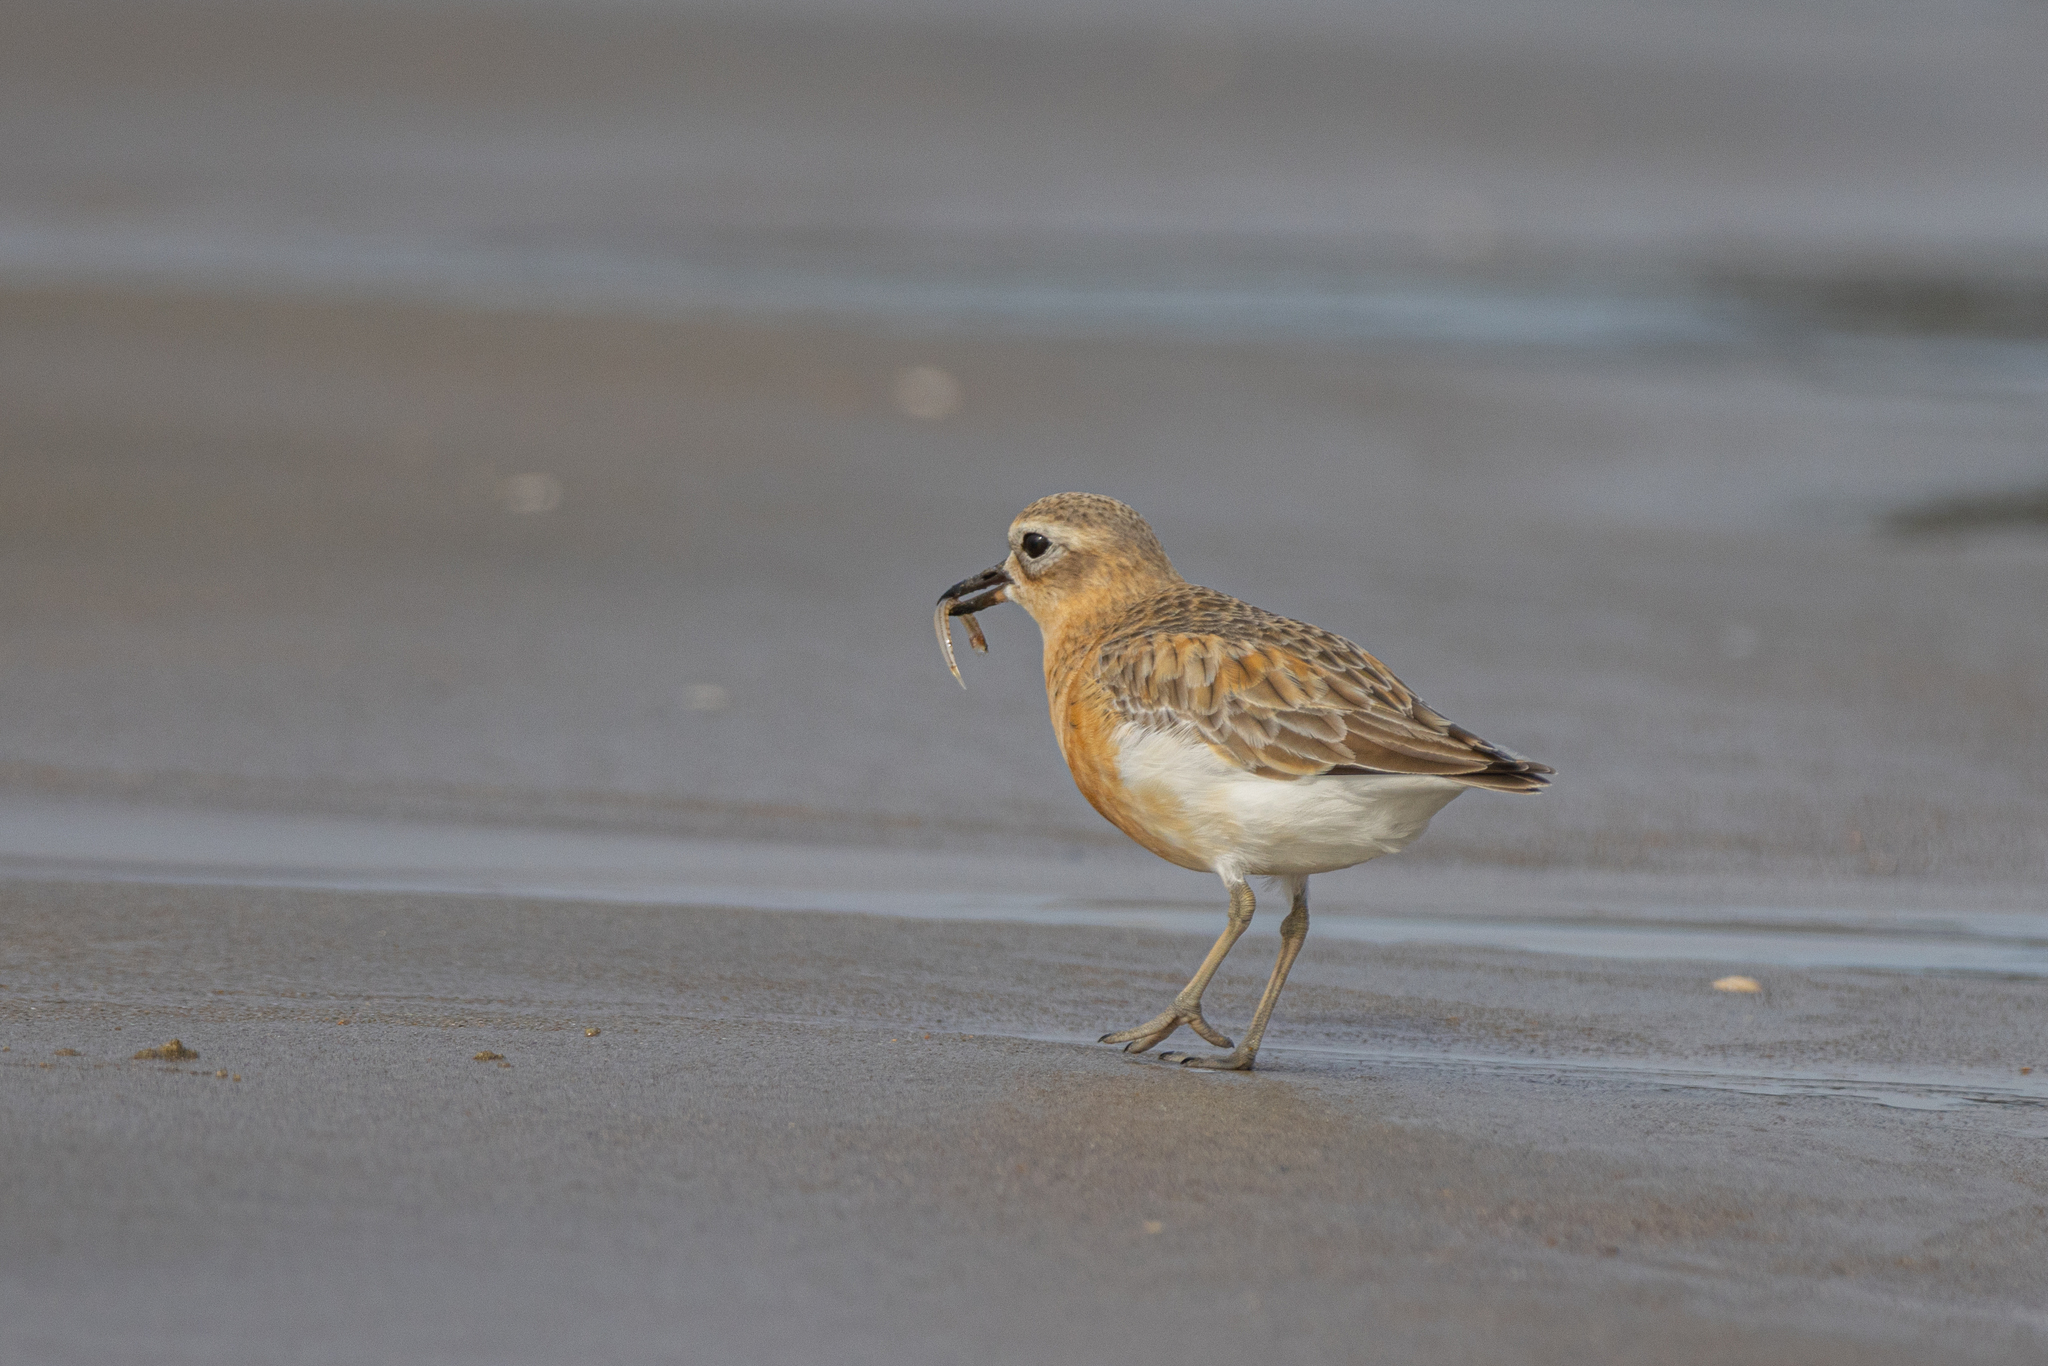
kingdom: Animalia
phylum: Chordata
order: Perciformes
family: Creediidae
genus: Tewara
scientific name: Tewara cranwellae
